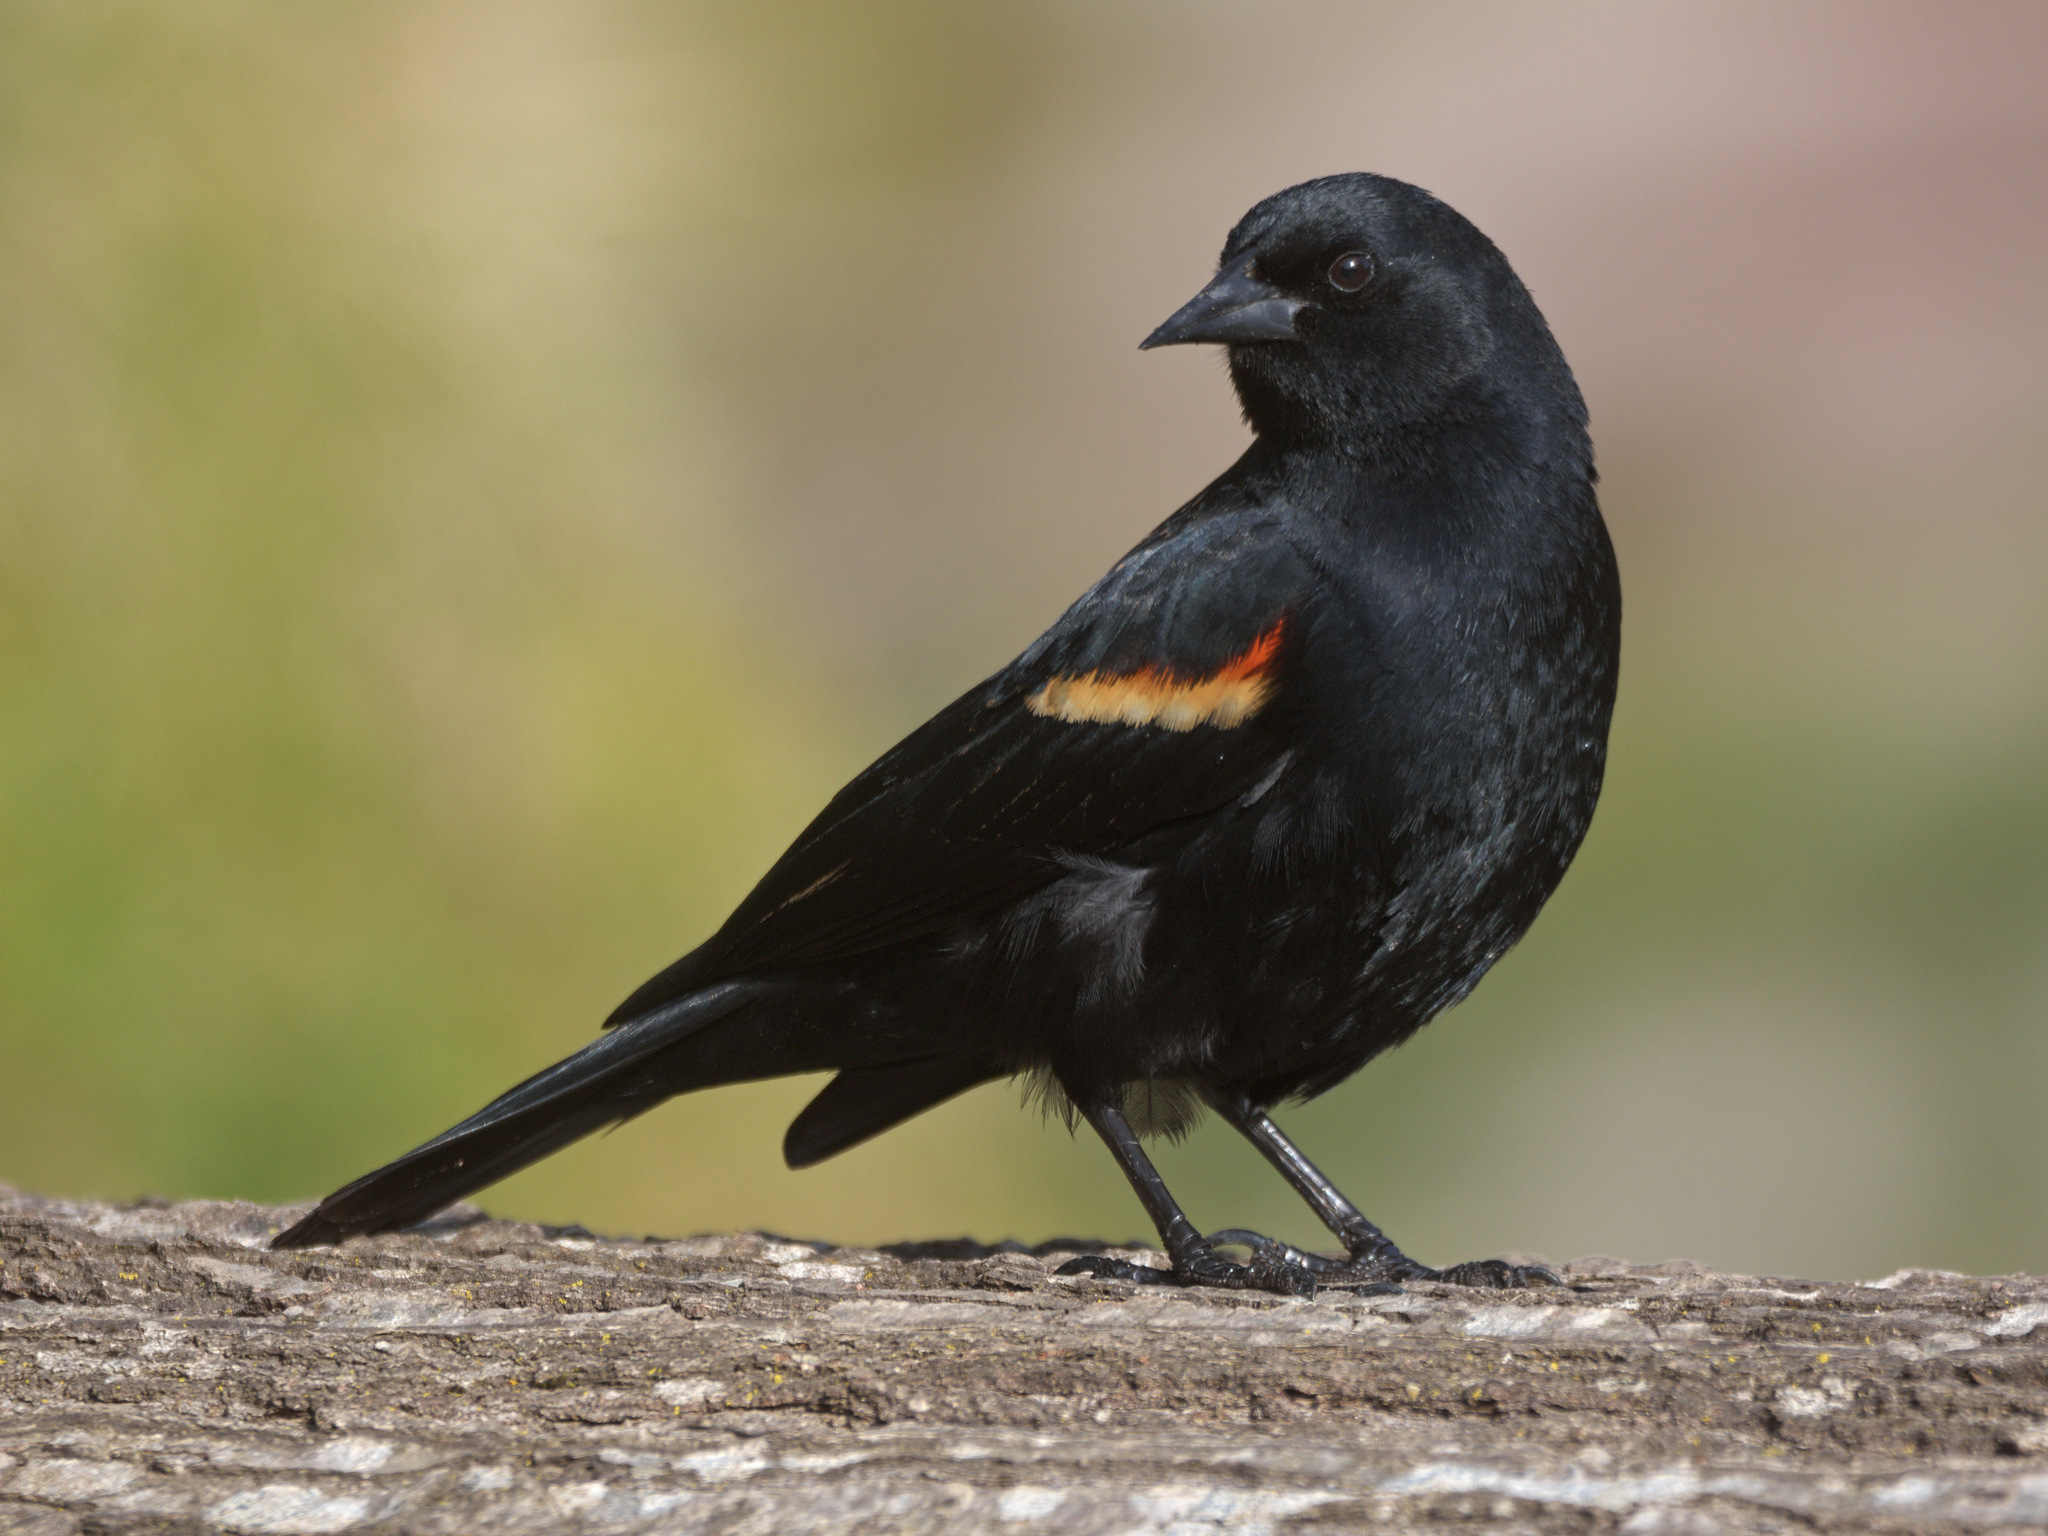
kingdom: Animalia
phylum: Chordata
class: Aves
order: Passeriformes
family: Icteridae
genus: Agelaius
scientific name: Agelaius phoeniceus
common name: Red-winged blackbird
